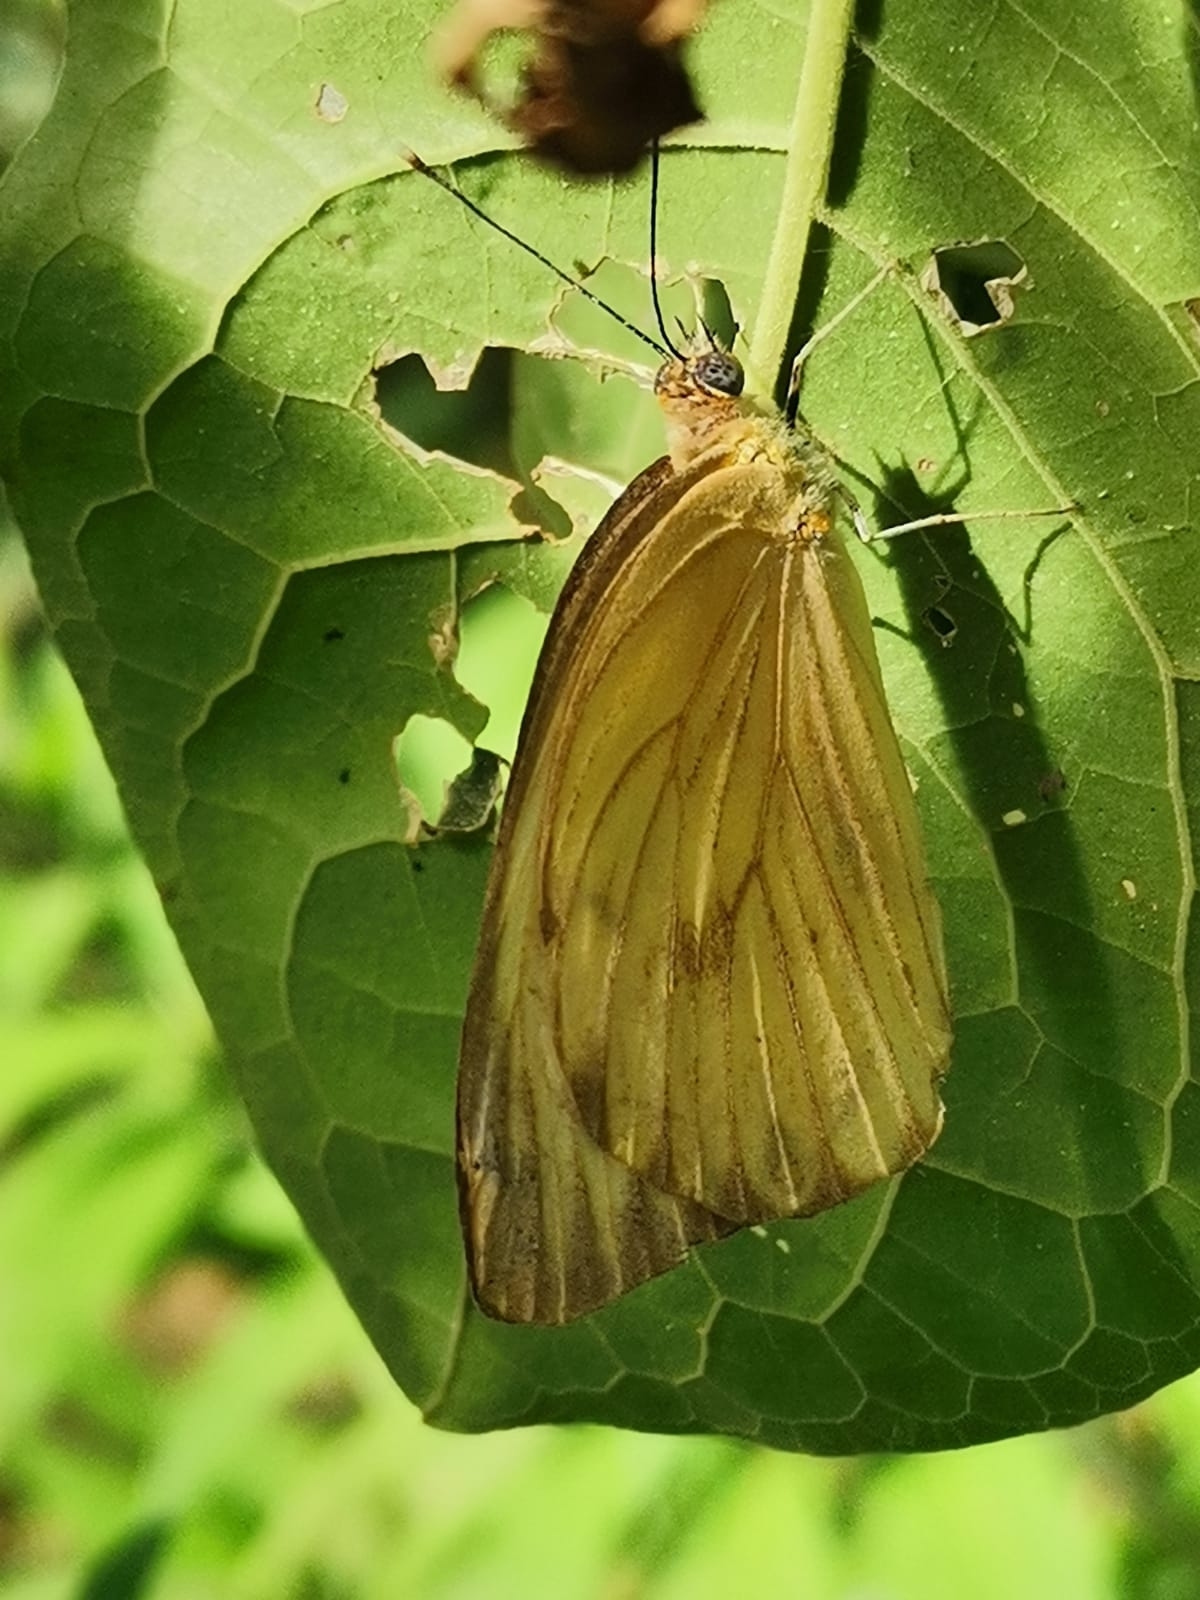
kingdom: Animalia
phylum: Arthropoda
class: Insecta
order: Lepidoptera
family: Pieridae
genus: Ascia
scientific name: Ascia monuste
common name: Great southern white
